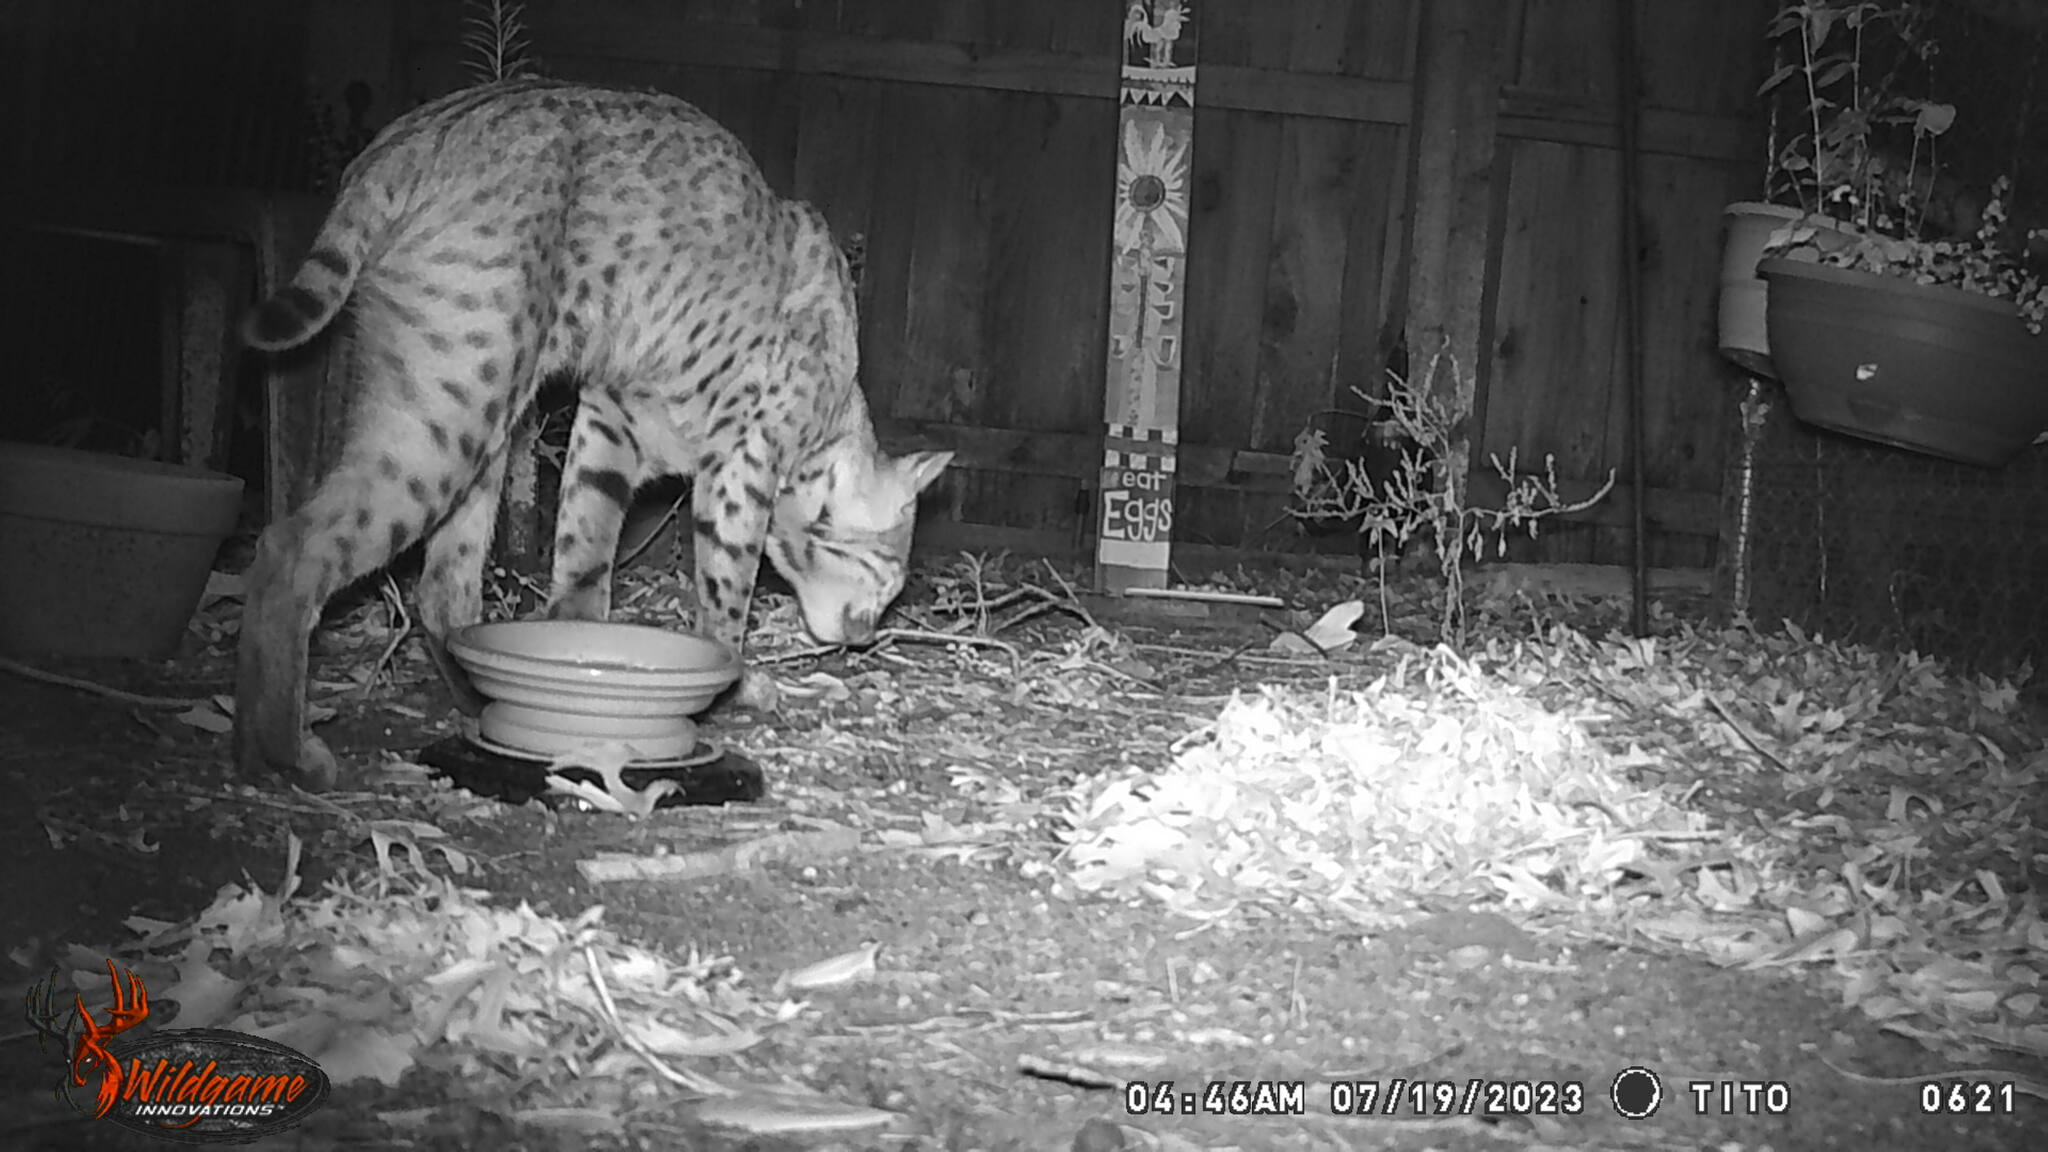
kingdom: Animalia
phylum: Chordata
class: Mammalia
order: Carnivora
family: Felidae
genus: Lynx
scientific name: Lynx rufus
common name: Bobcat
